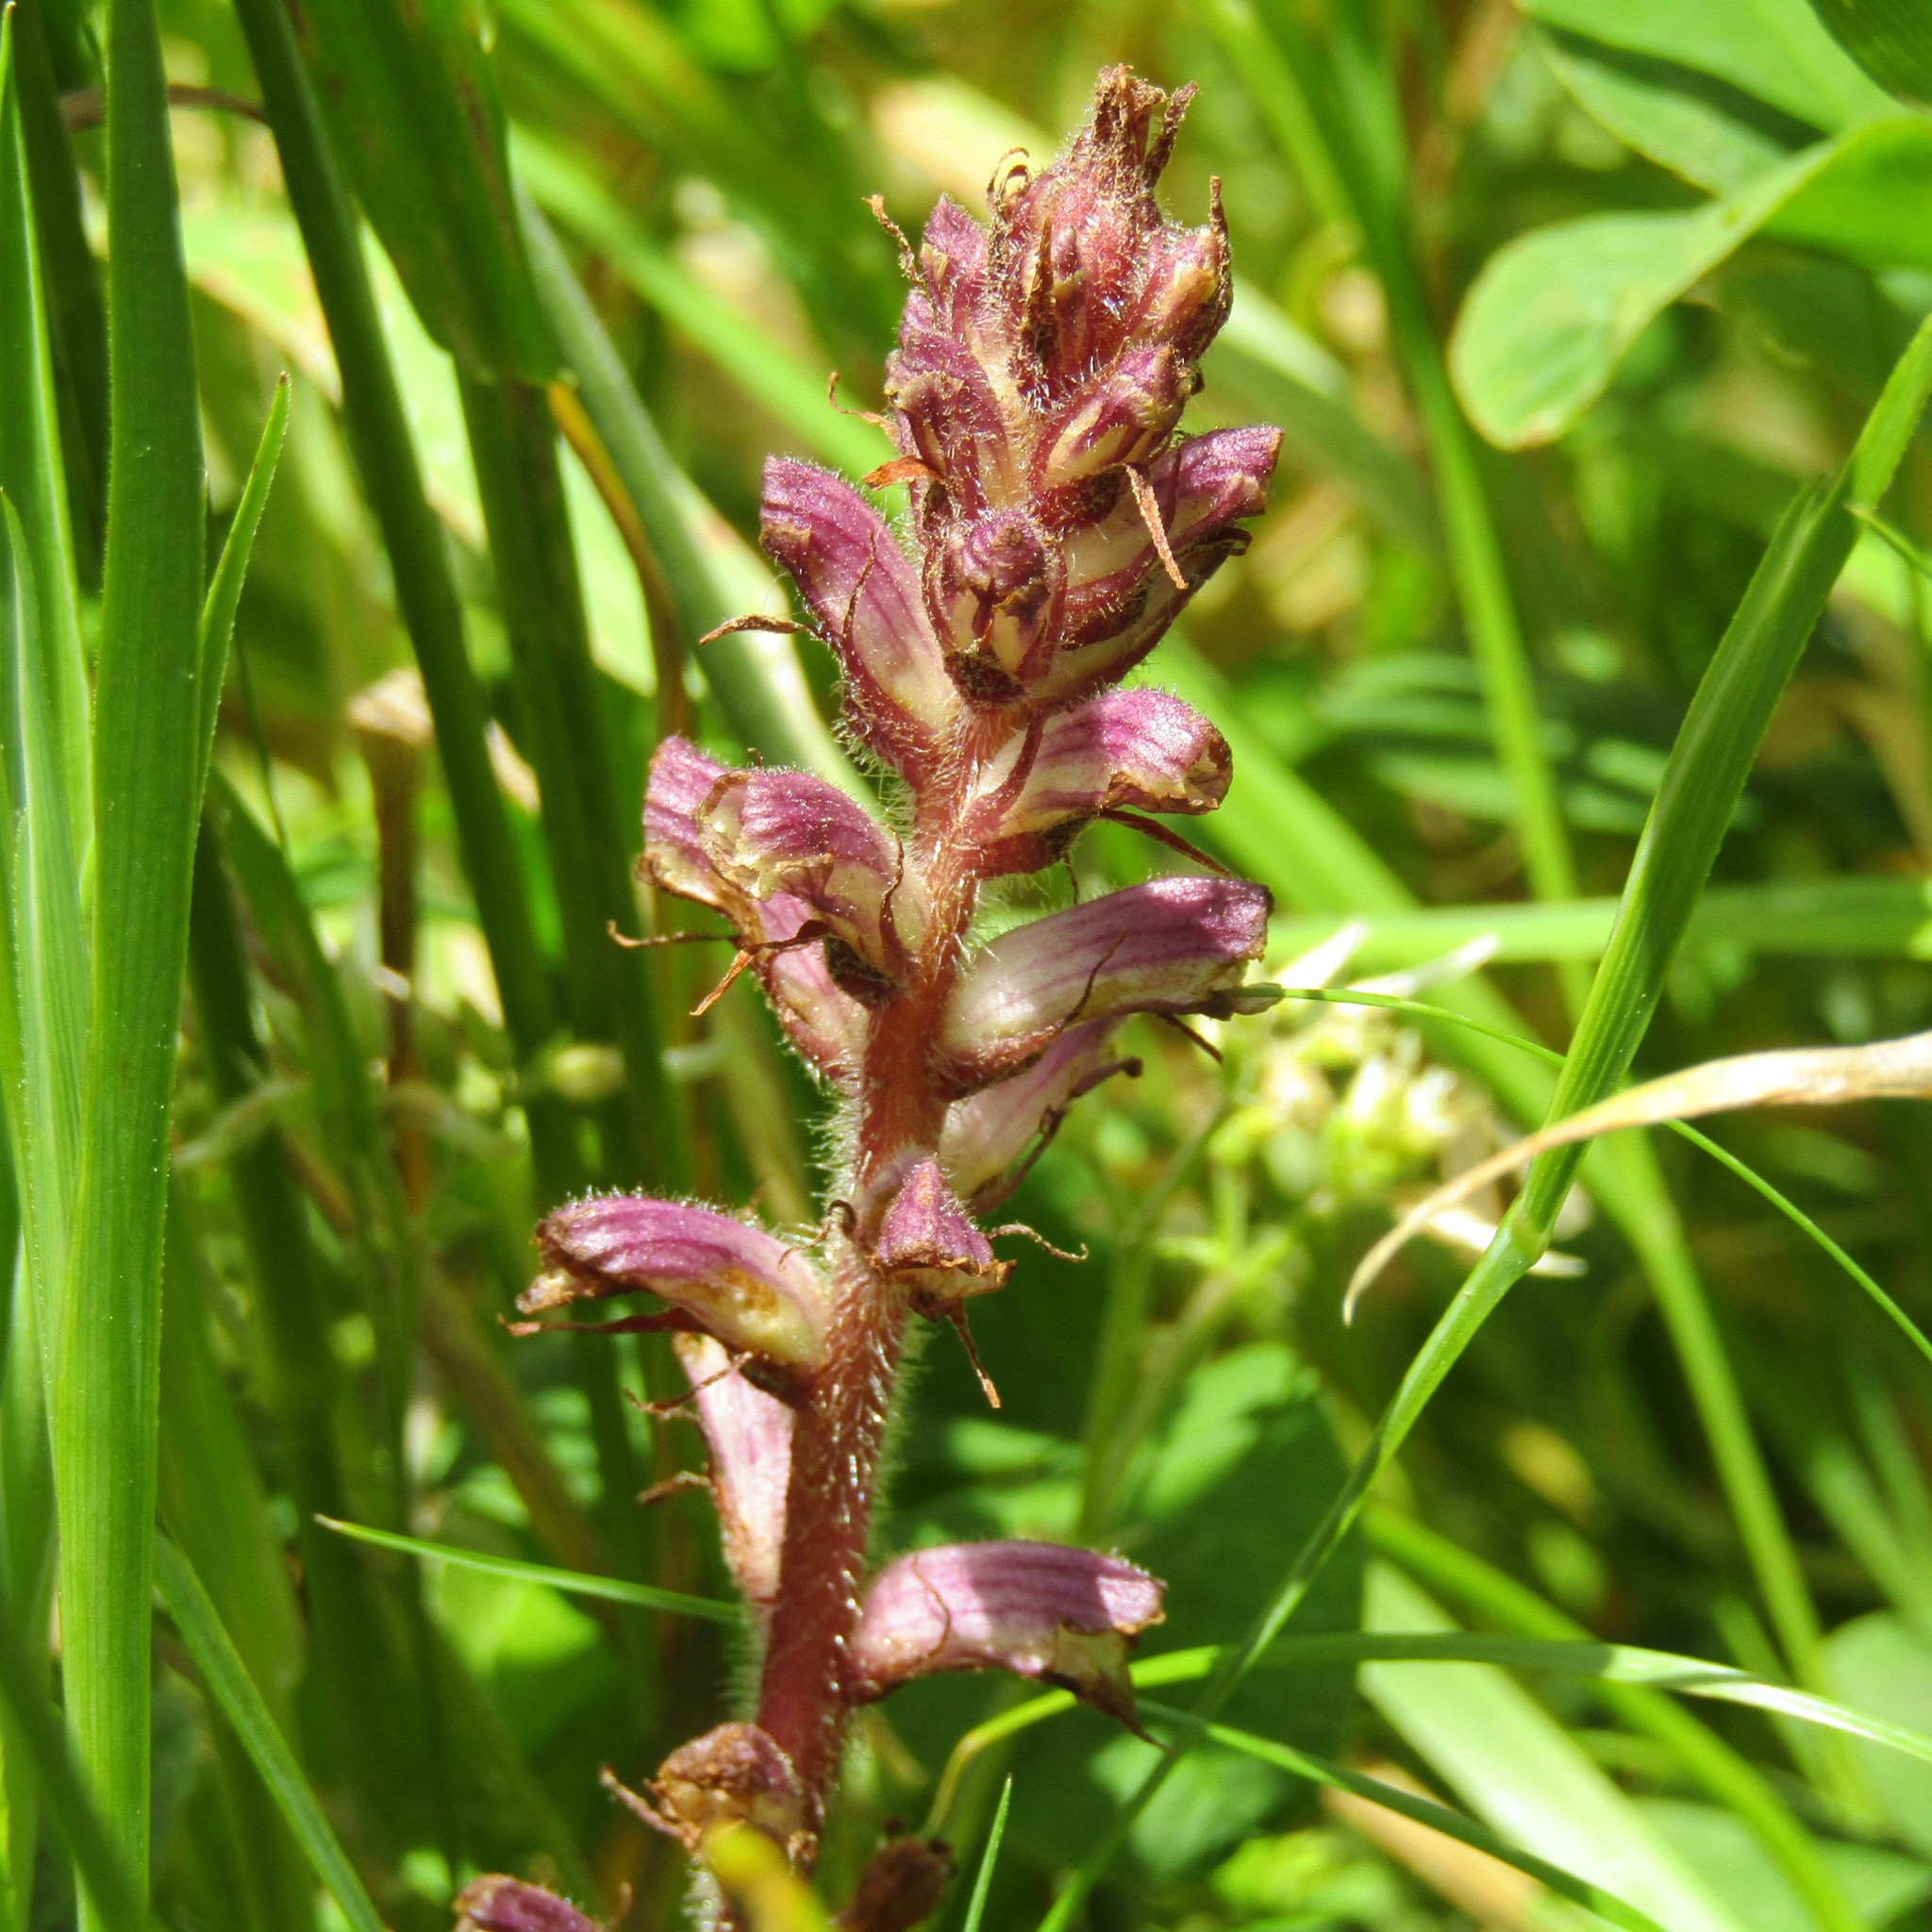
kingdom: Plantae
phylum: Tracheophyta
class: Magnoliopsida
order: Lamiales
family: Orobanchaceae
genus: Orobanche
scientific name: Orobanche minor
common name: Common broomrape
